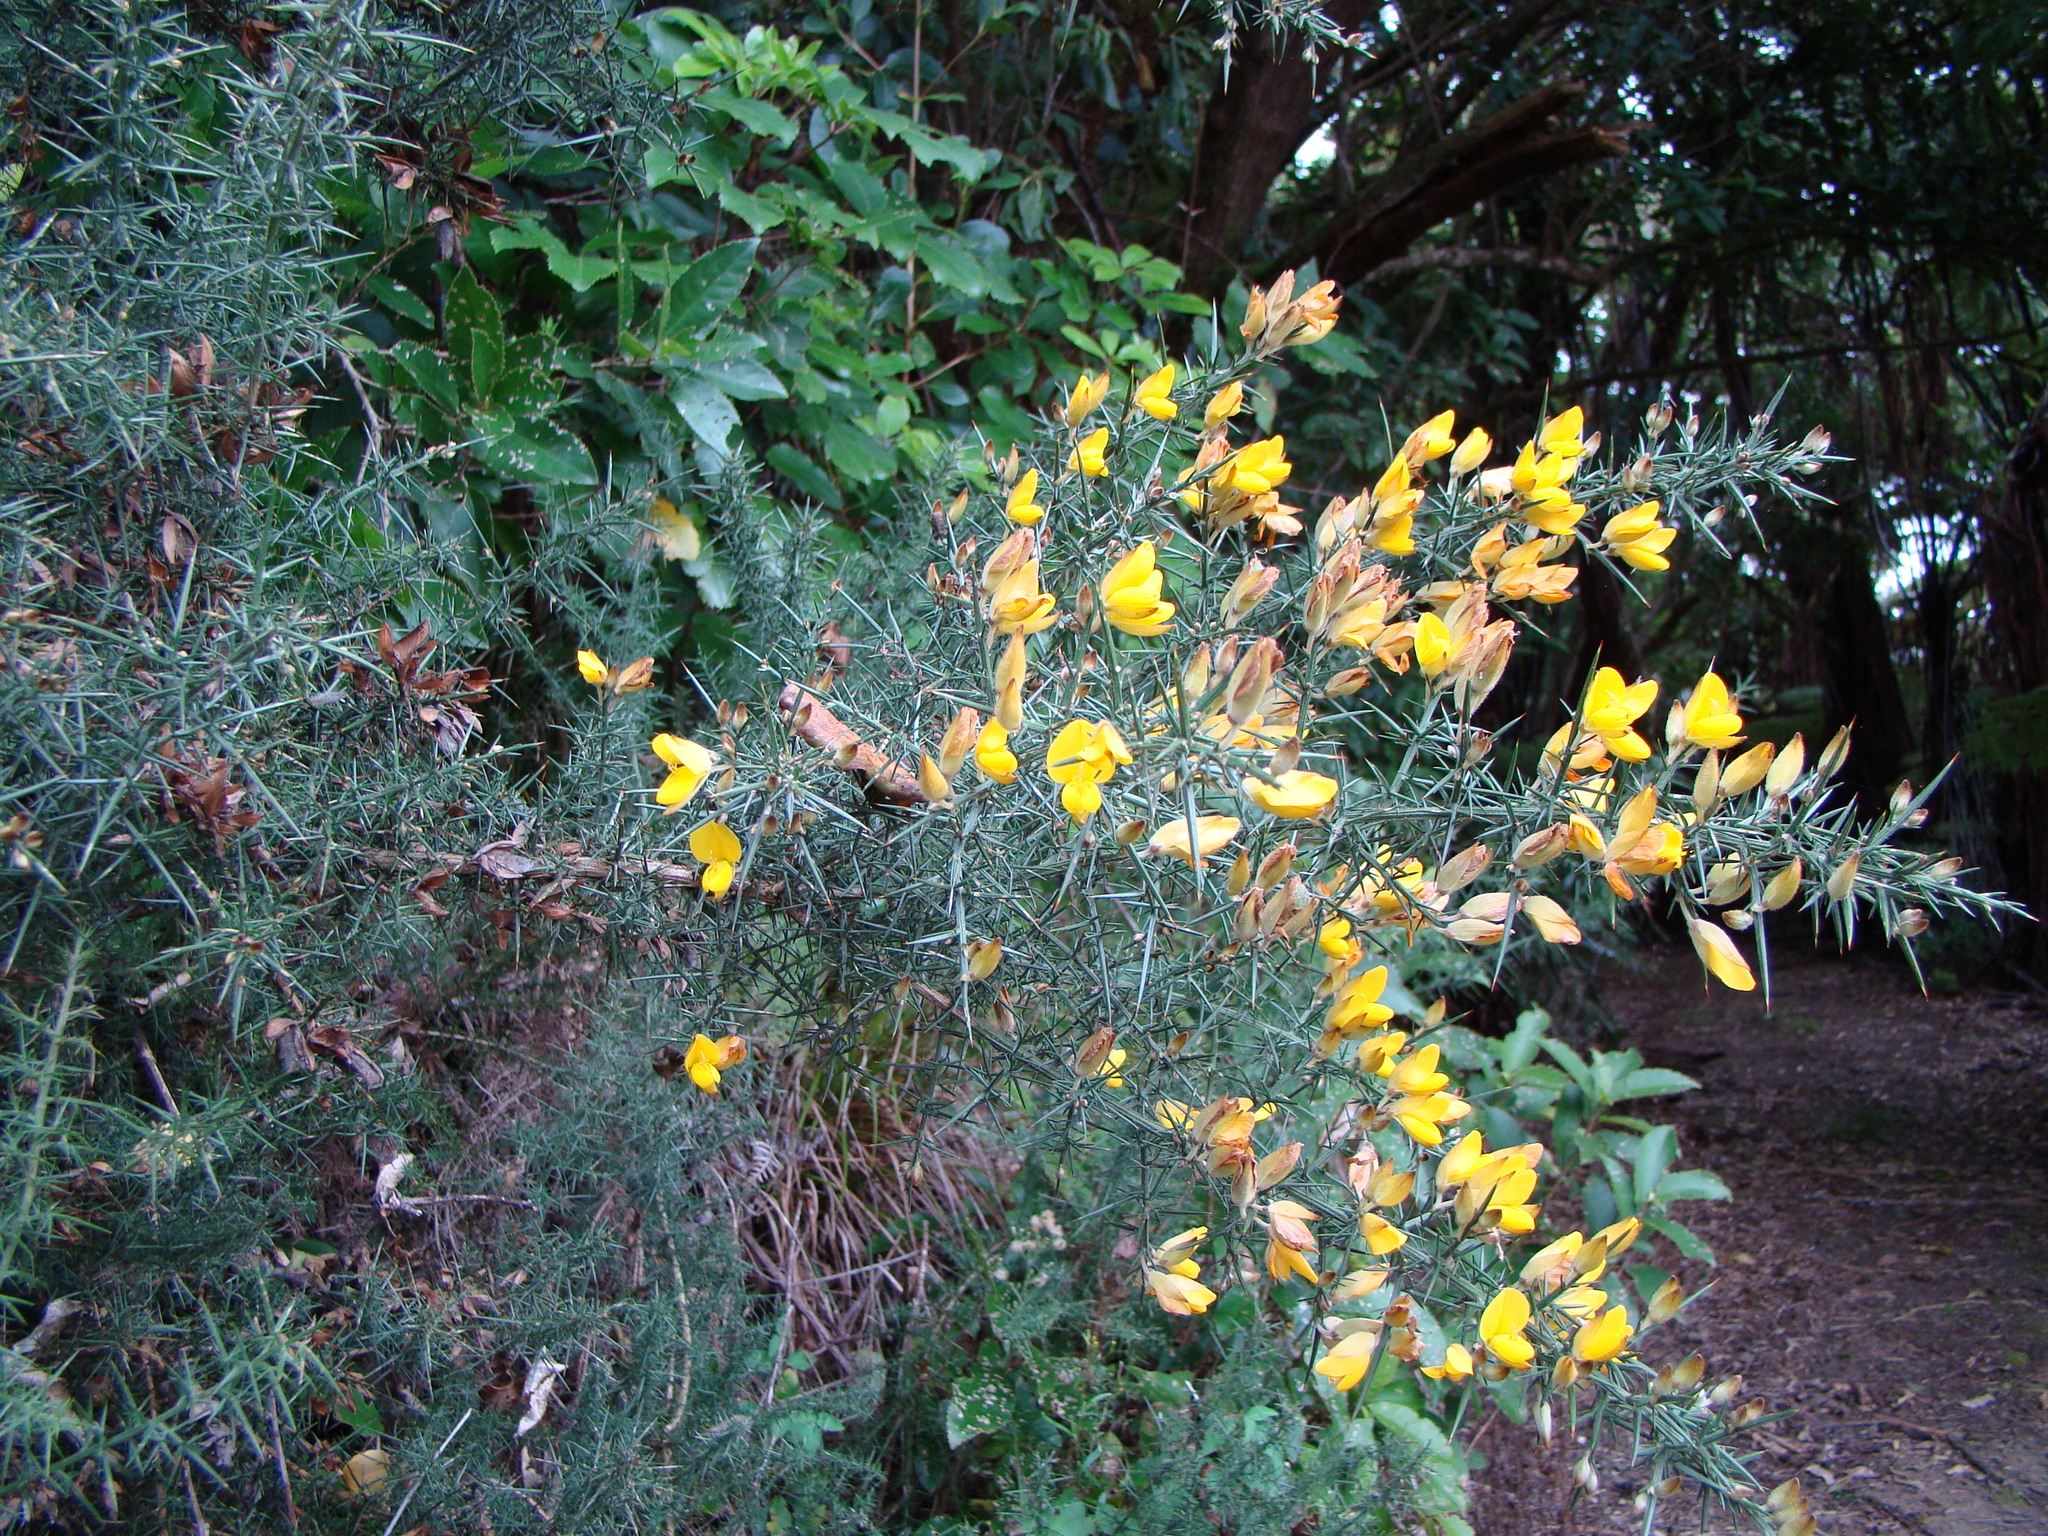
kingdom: Plantae
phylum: Tracheophyta
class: Magnoliopsida
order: Fabales
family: Fabaceae
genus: Ulex
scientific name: Ulex europaeus
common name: Common gorse
